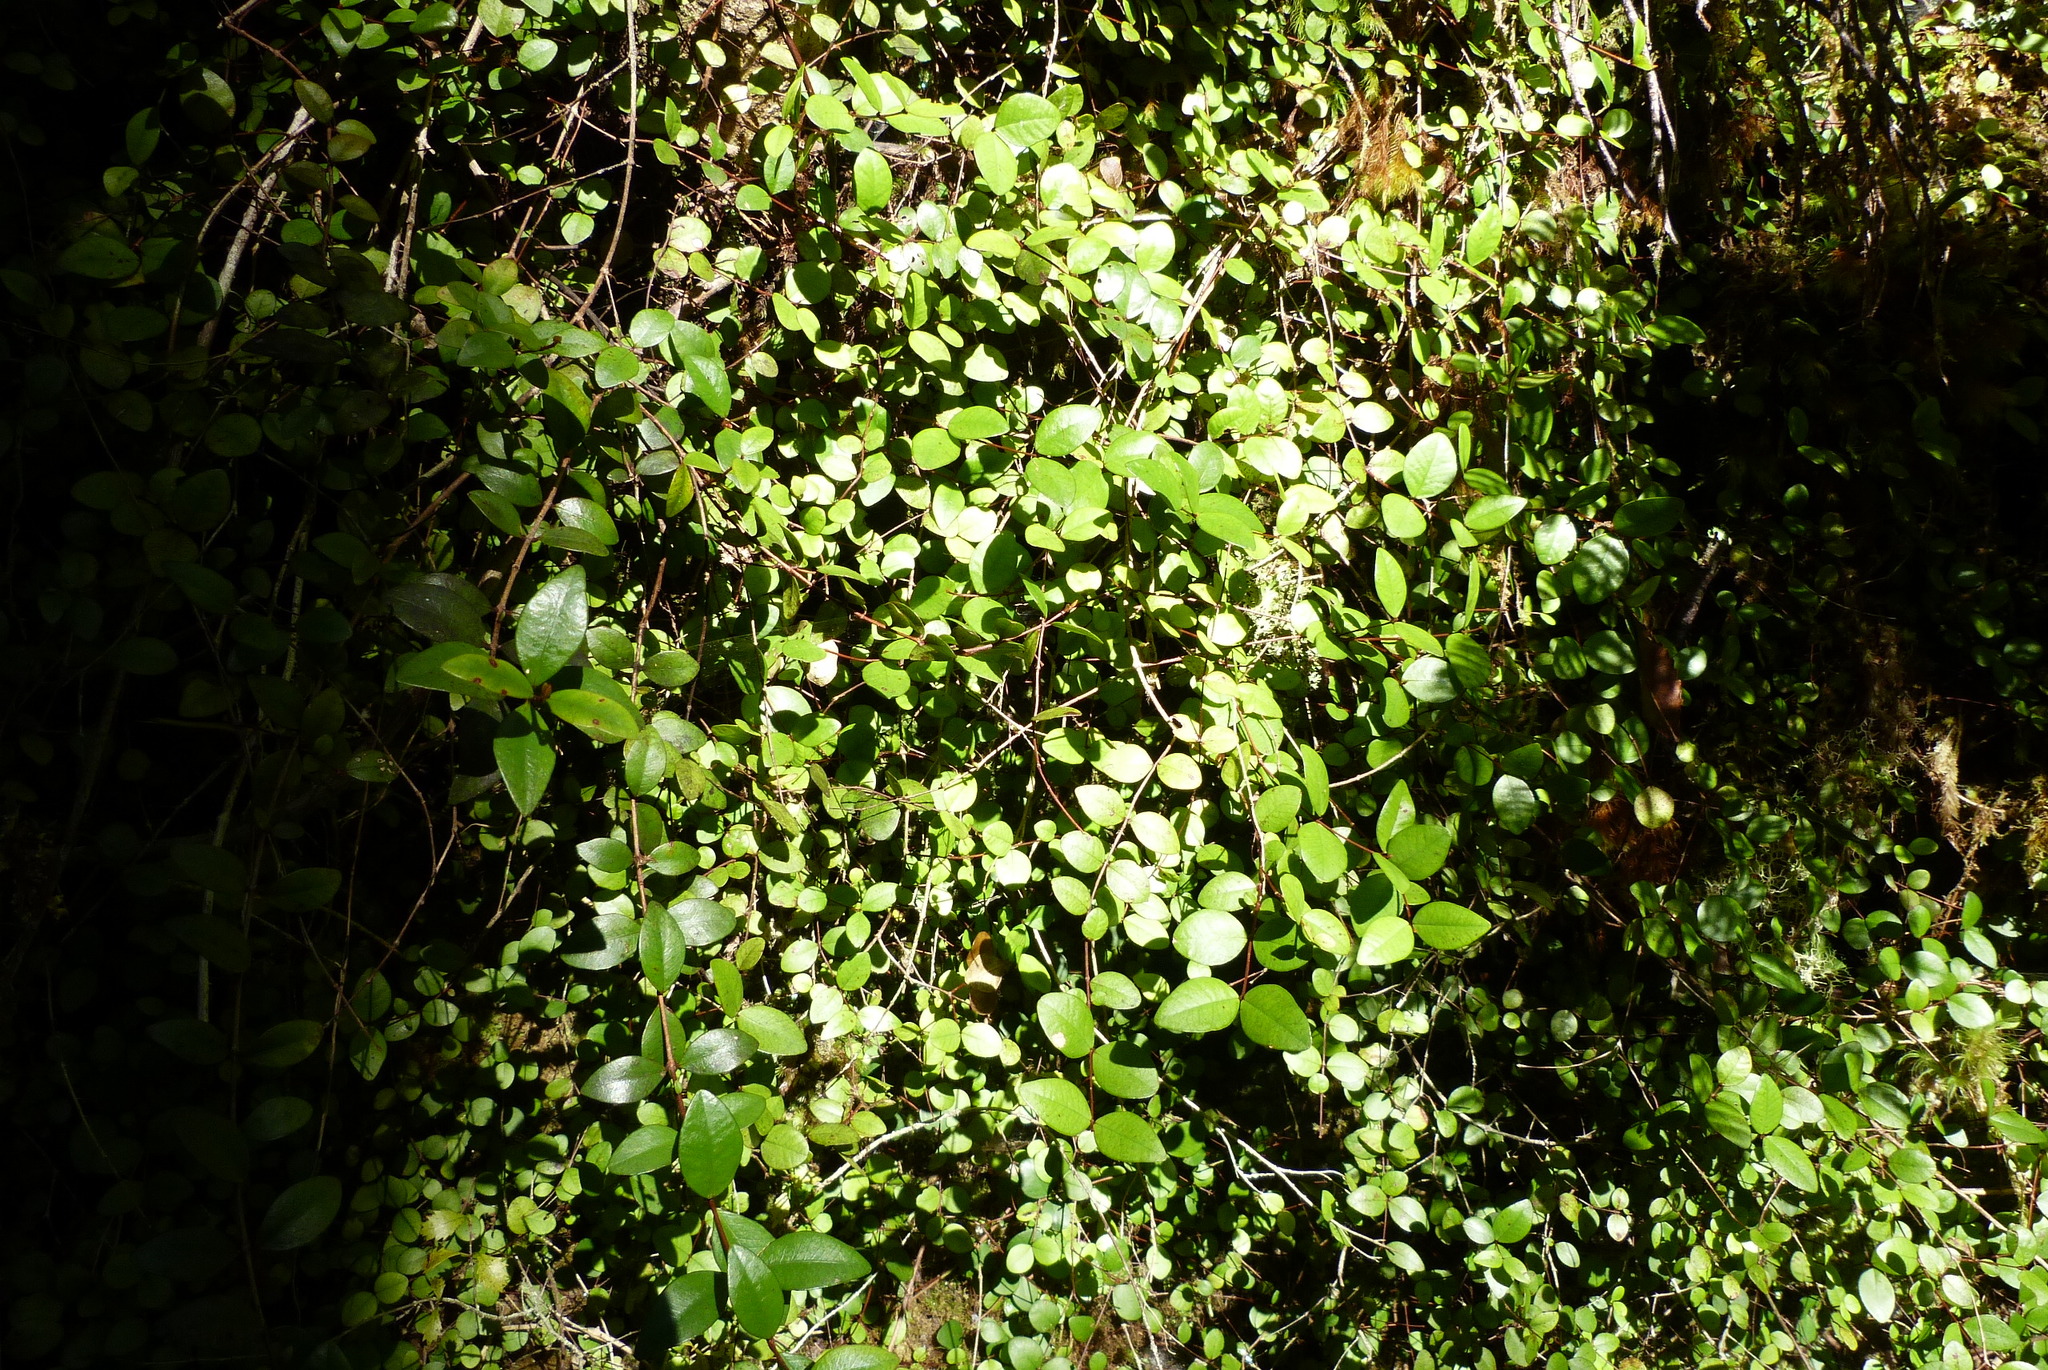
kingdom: Plantae
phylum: Tracheophyta
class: Magnoliopsida
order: Myrtales
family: Myrtaceae
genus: Metrosideros
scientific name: Metrosideros fulgens
